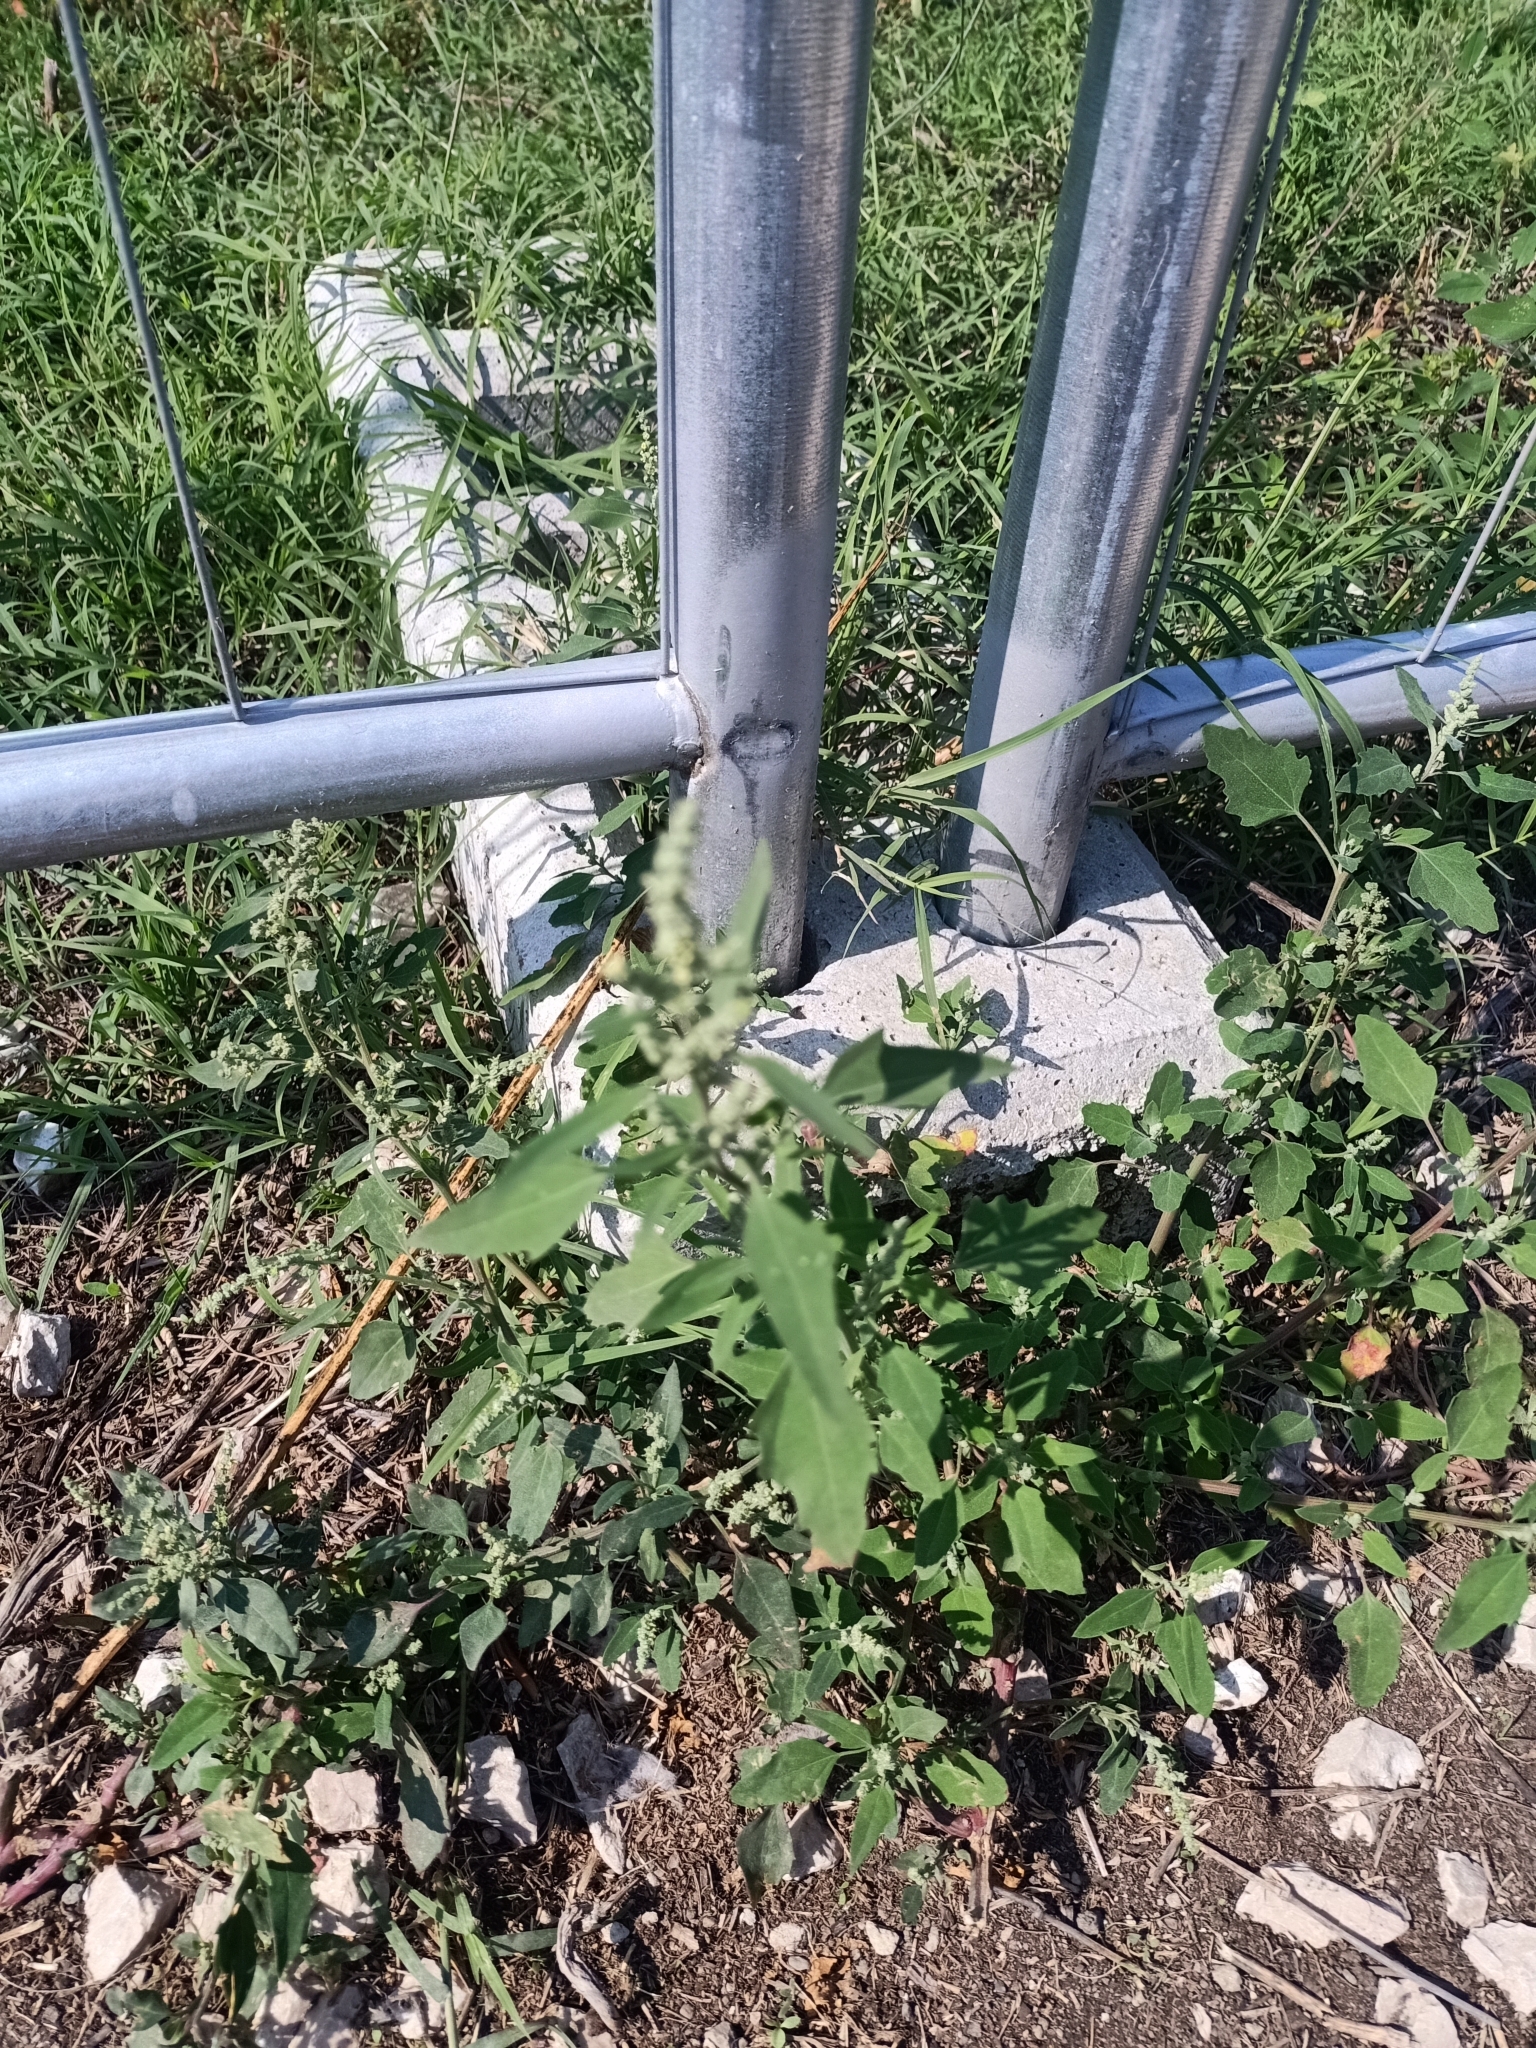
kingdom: Plantae
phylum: Tracheophyta
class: Magnoliopsida
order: Caryophyllales
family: Amaranthaceae
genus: Chenopodium
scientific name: Chenopodium album
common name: Fat-hen
